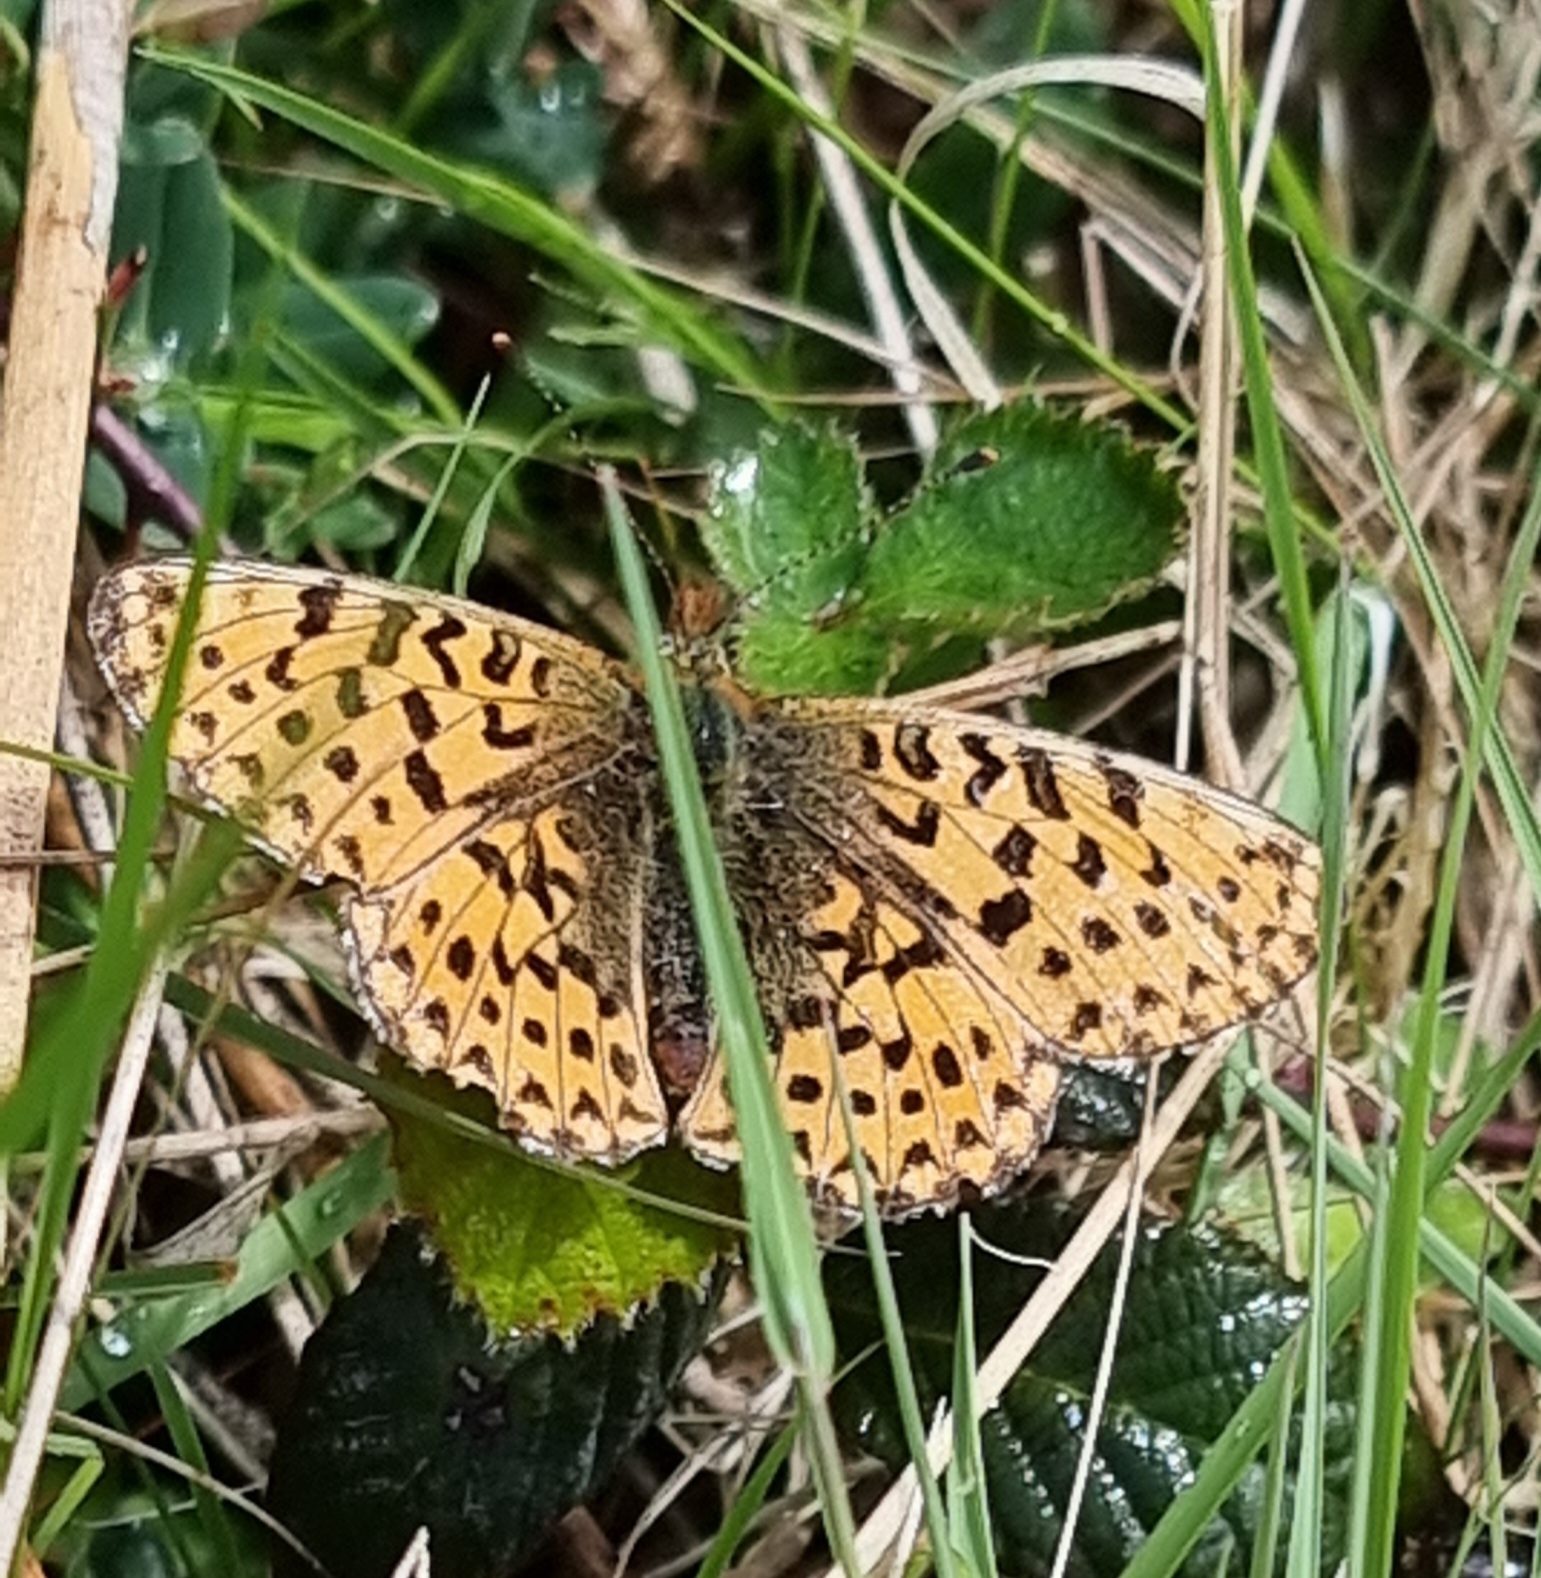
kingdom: Animalia
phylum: Arthropoda
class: Insecta
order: Lepidoptera
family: Nymphalidae
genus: Clossiana
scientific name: Clossiana euphrosyne
